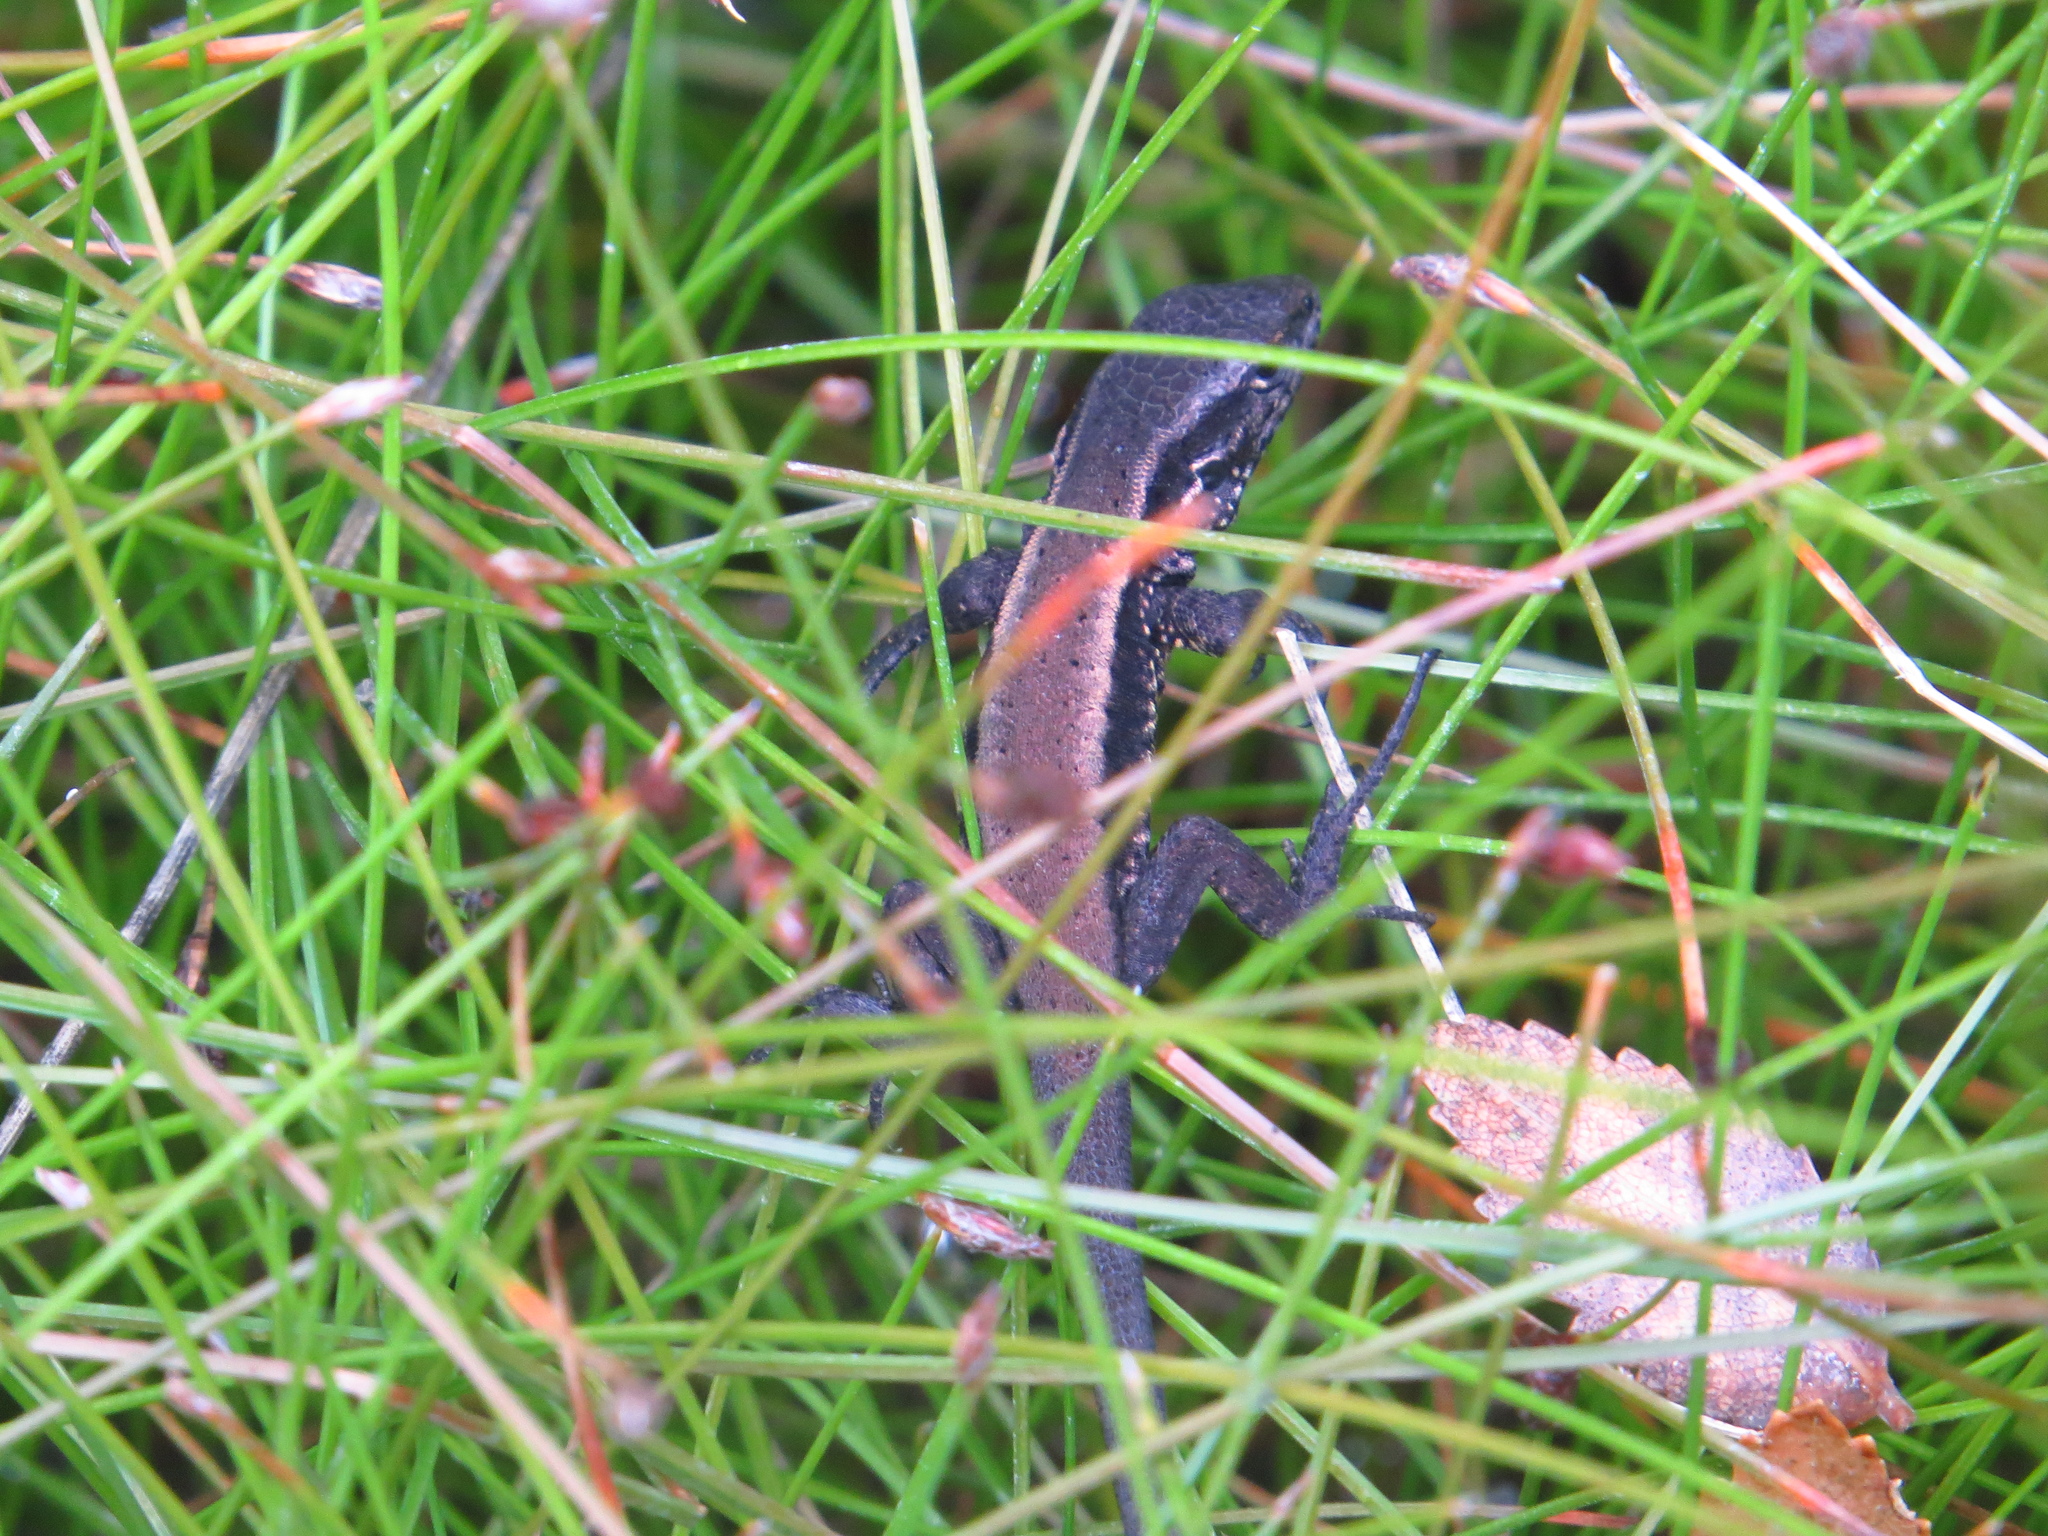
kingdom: Animalia
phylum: Chordata
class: Squamata
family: Liolaemidae
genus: Liolaemus
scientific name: Liolaemus pictus
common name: Painted tree iguana
